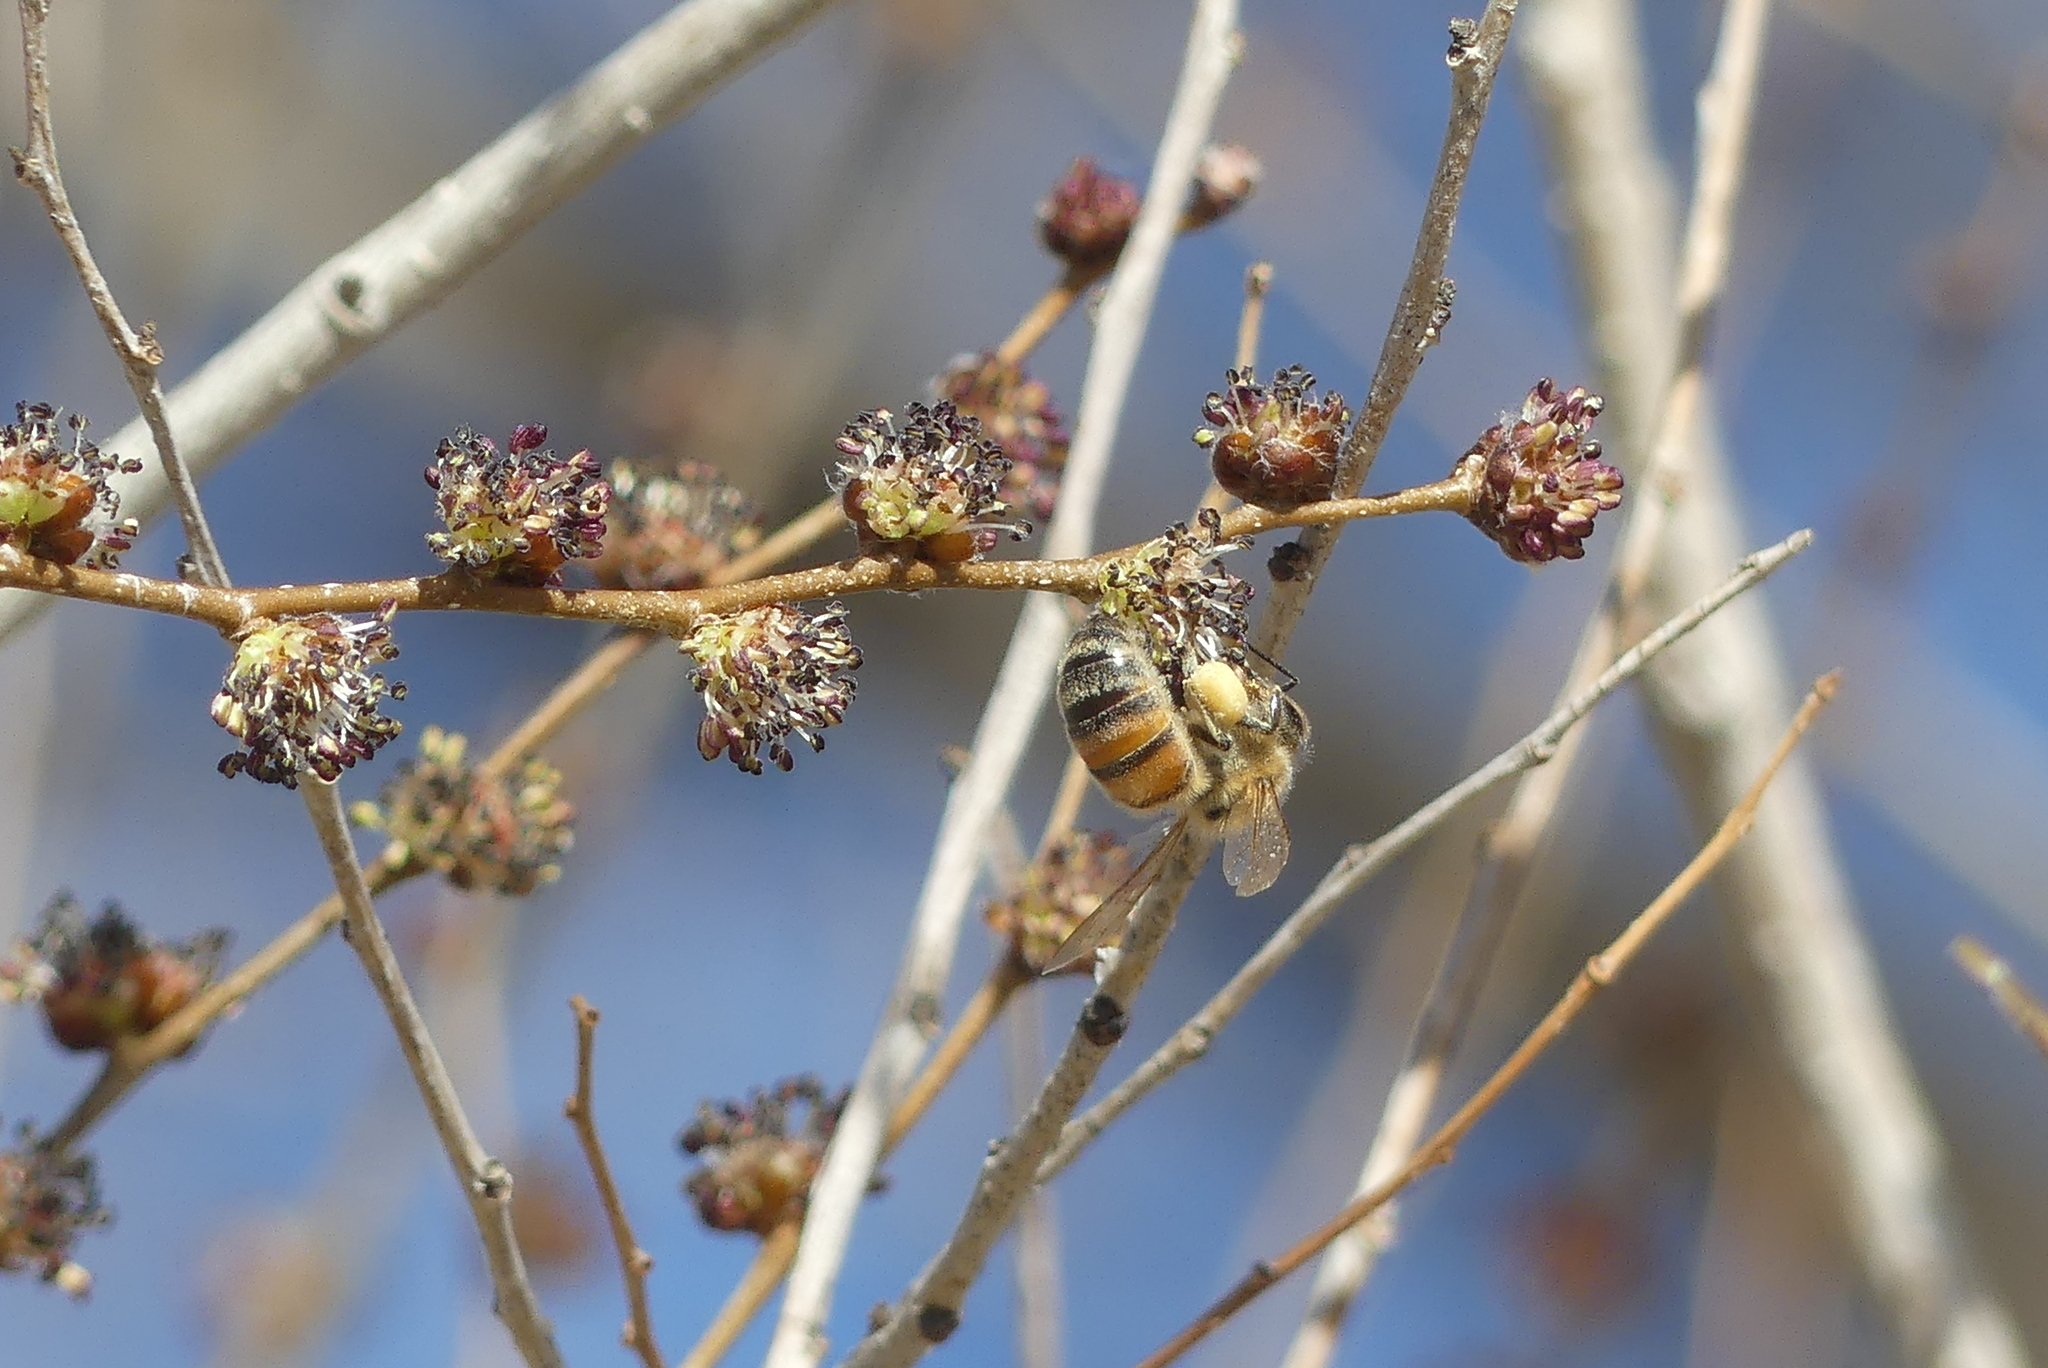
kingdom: Animalia
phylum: Arthropoda
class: Insecta
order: Hymenoptera
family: Apidae
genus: Apis
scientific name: Apis mellifera
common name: Honey bee
